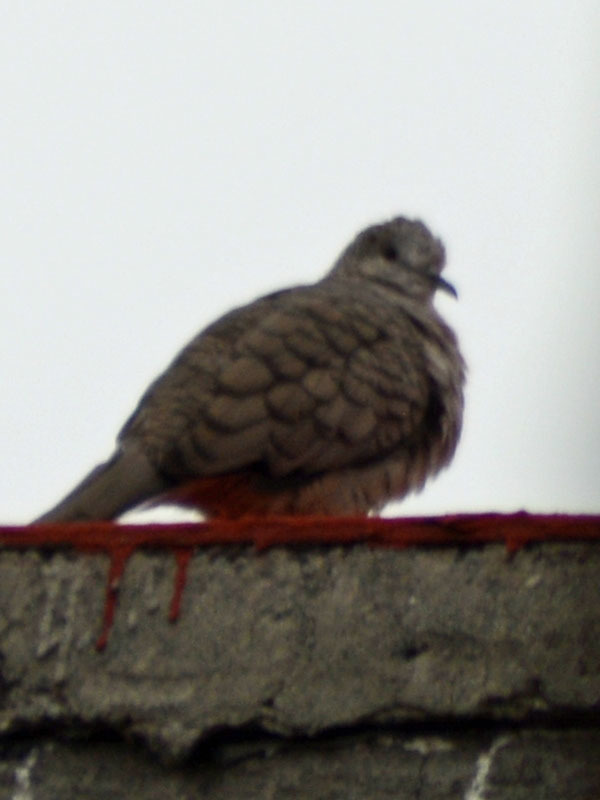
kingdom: Animalia
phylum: Chordata
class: Aves
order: Columbiformes
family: Columbidae
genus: Columbina
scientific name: Columbina inca
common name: Inca dove
